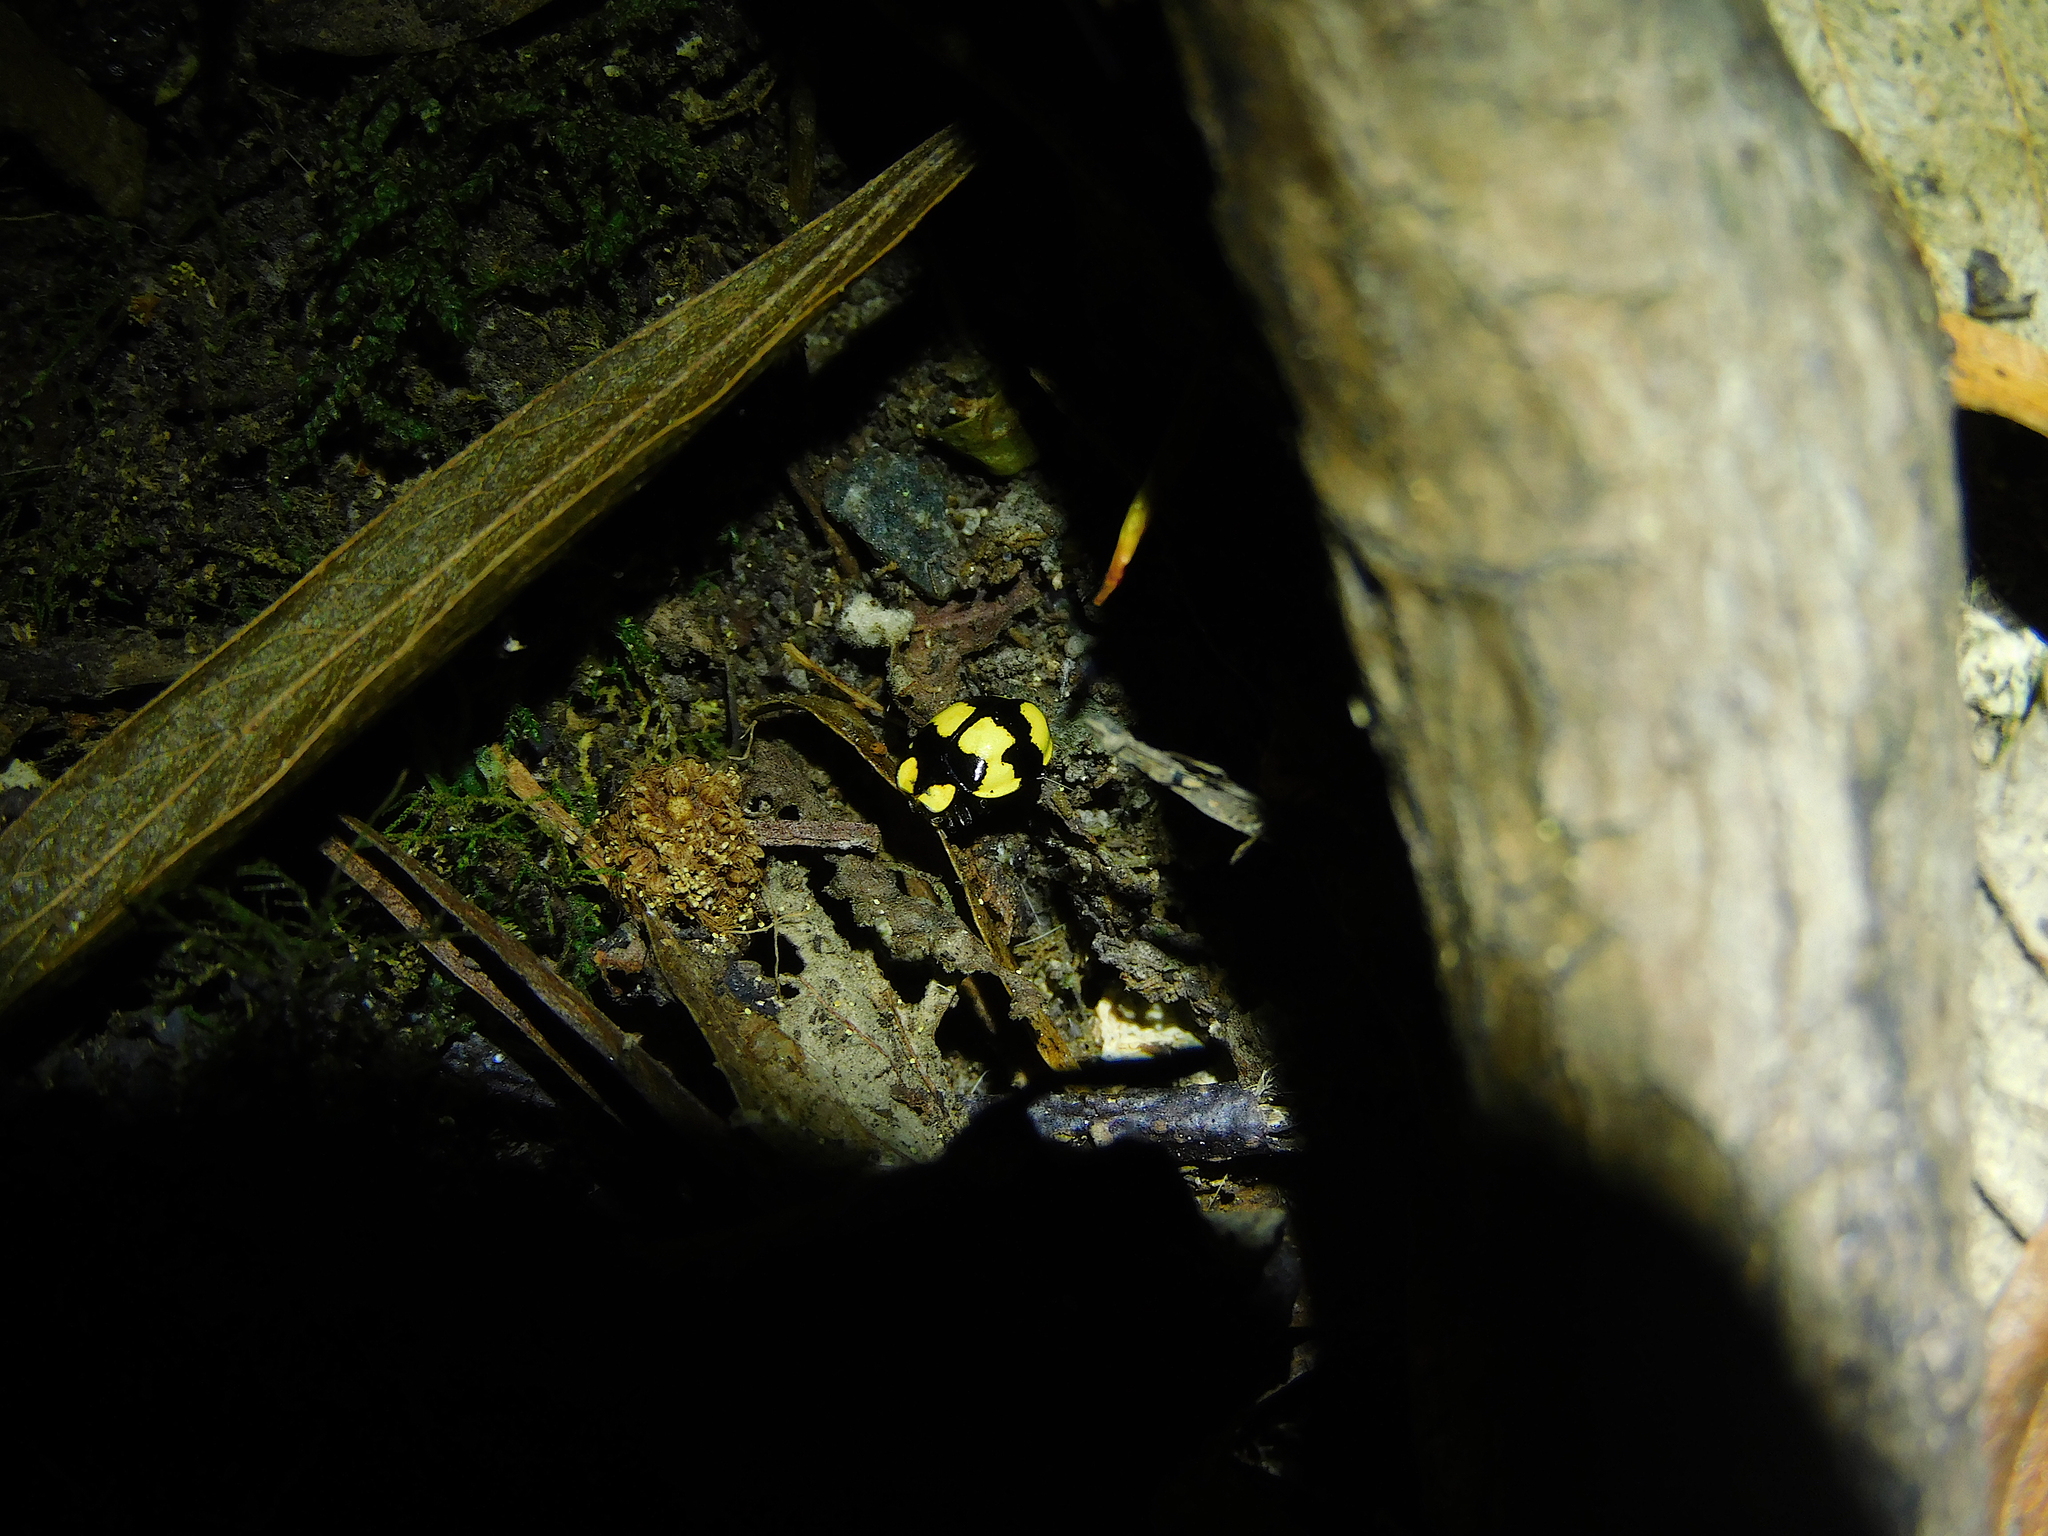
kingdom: Animalia
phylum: Arthropoda
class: Insecta
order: Coleoptera
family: Coccinellidae
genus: Illeis
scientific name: Illeis galbula
